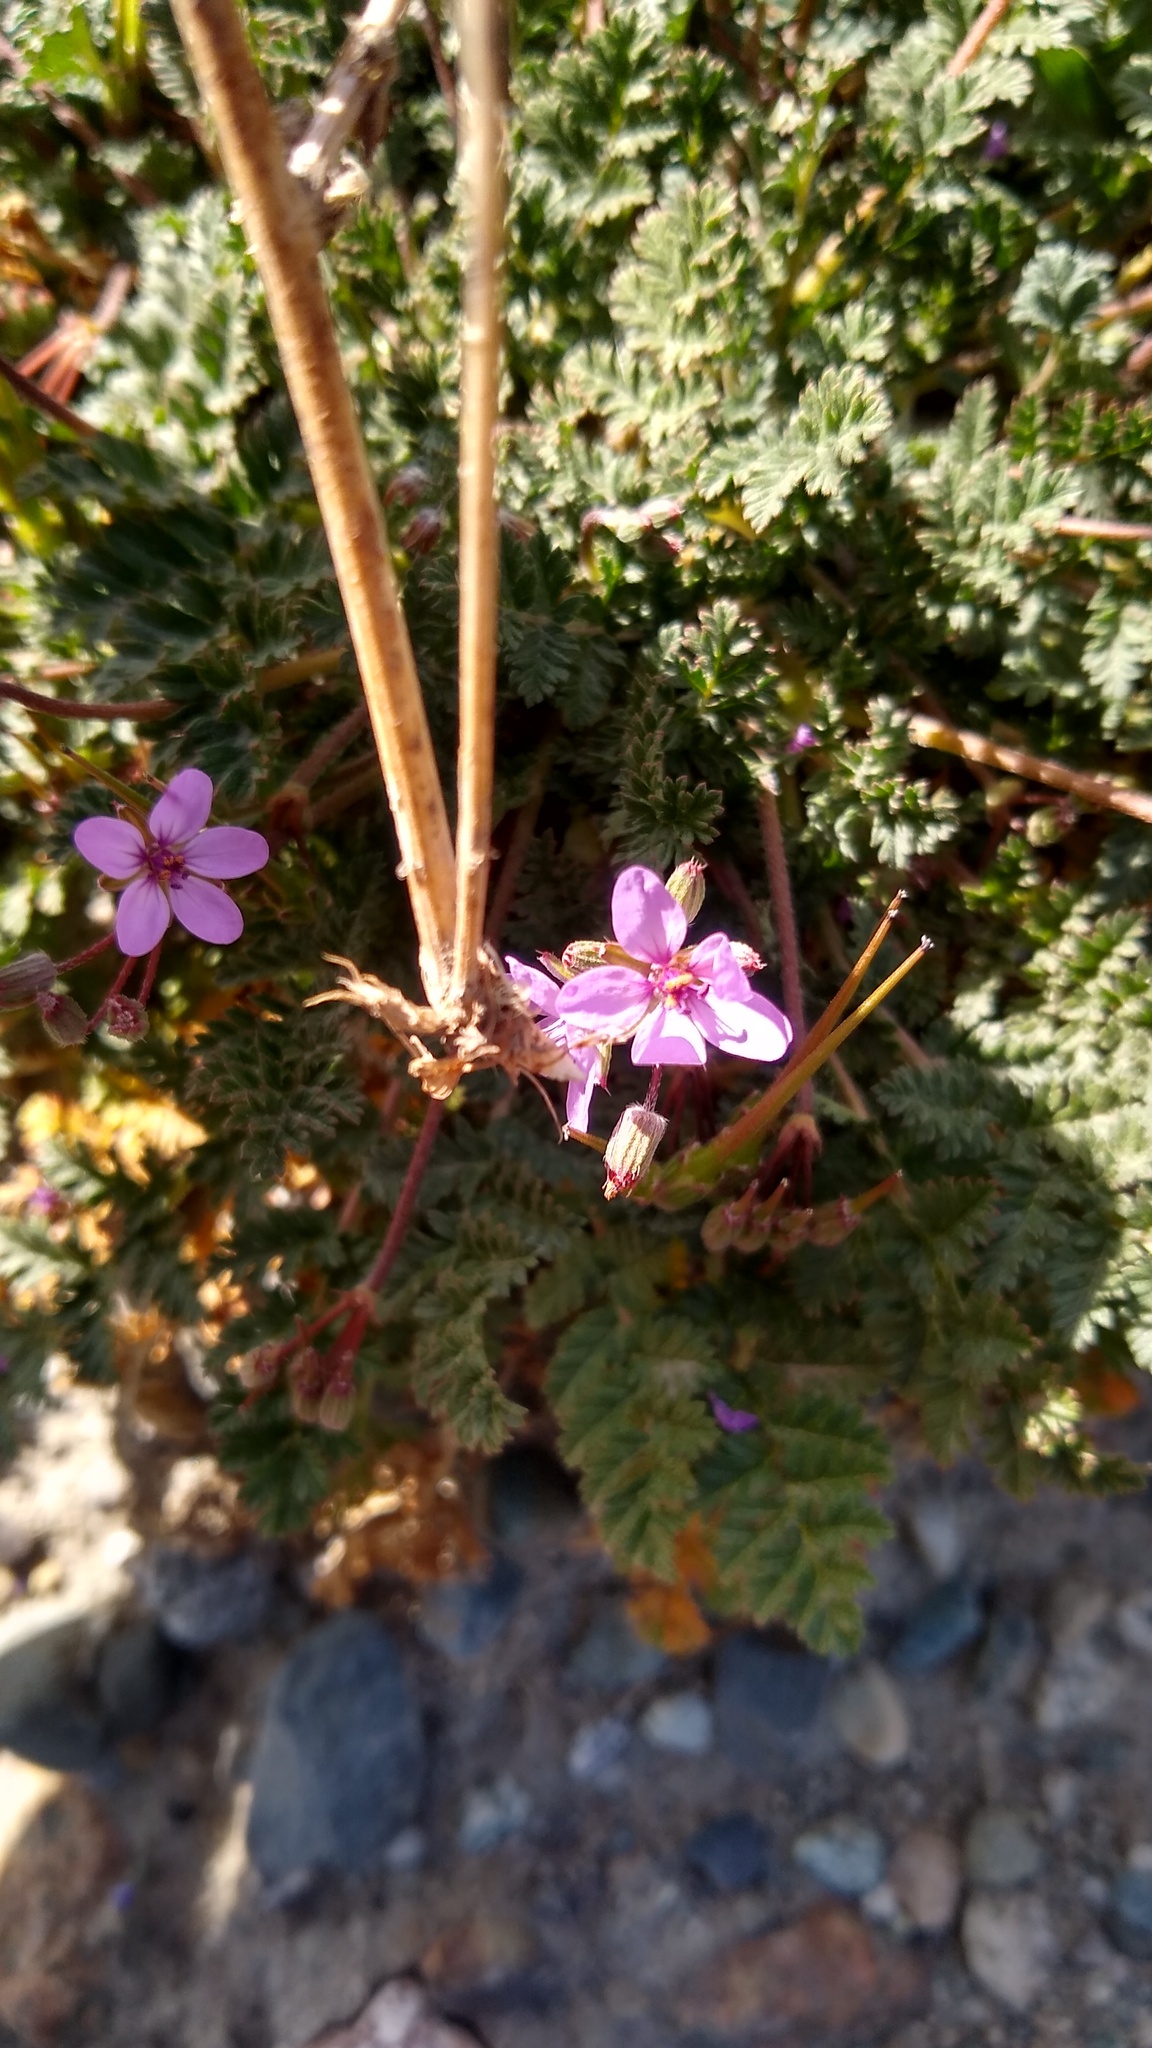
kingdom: Plantae
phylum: Tracheophyta
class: Magnoliopsida
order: Geraniales
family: Geraniaceae
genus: Erodium
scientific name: Erodium cicutarium
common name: Common stork's-bill
